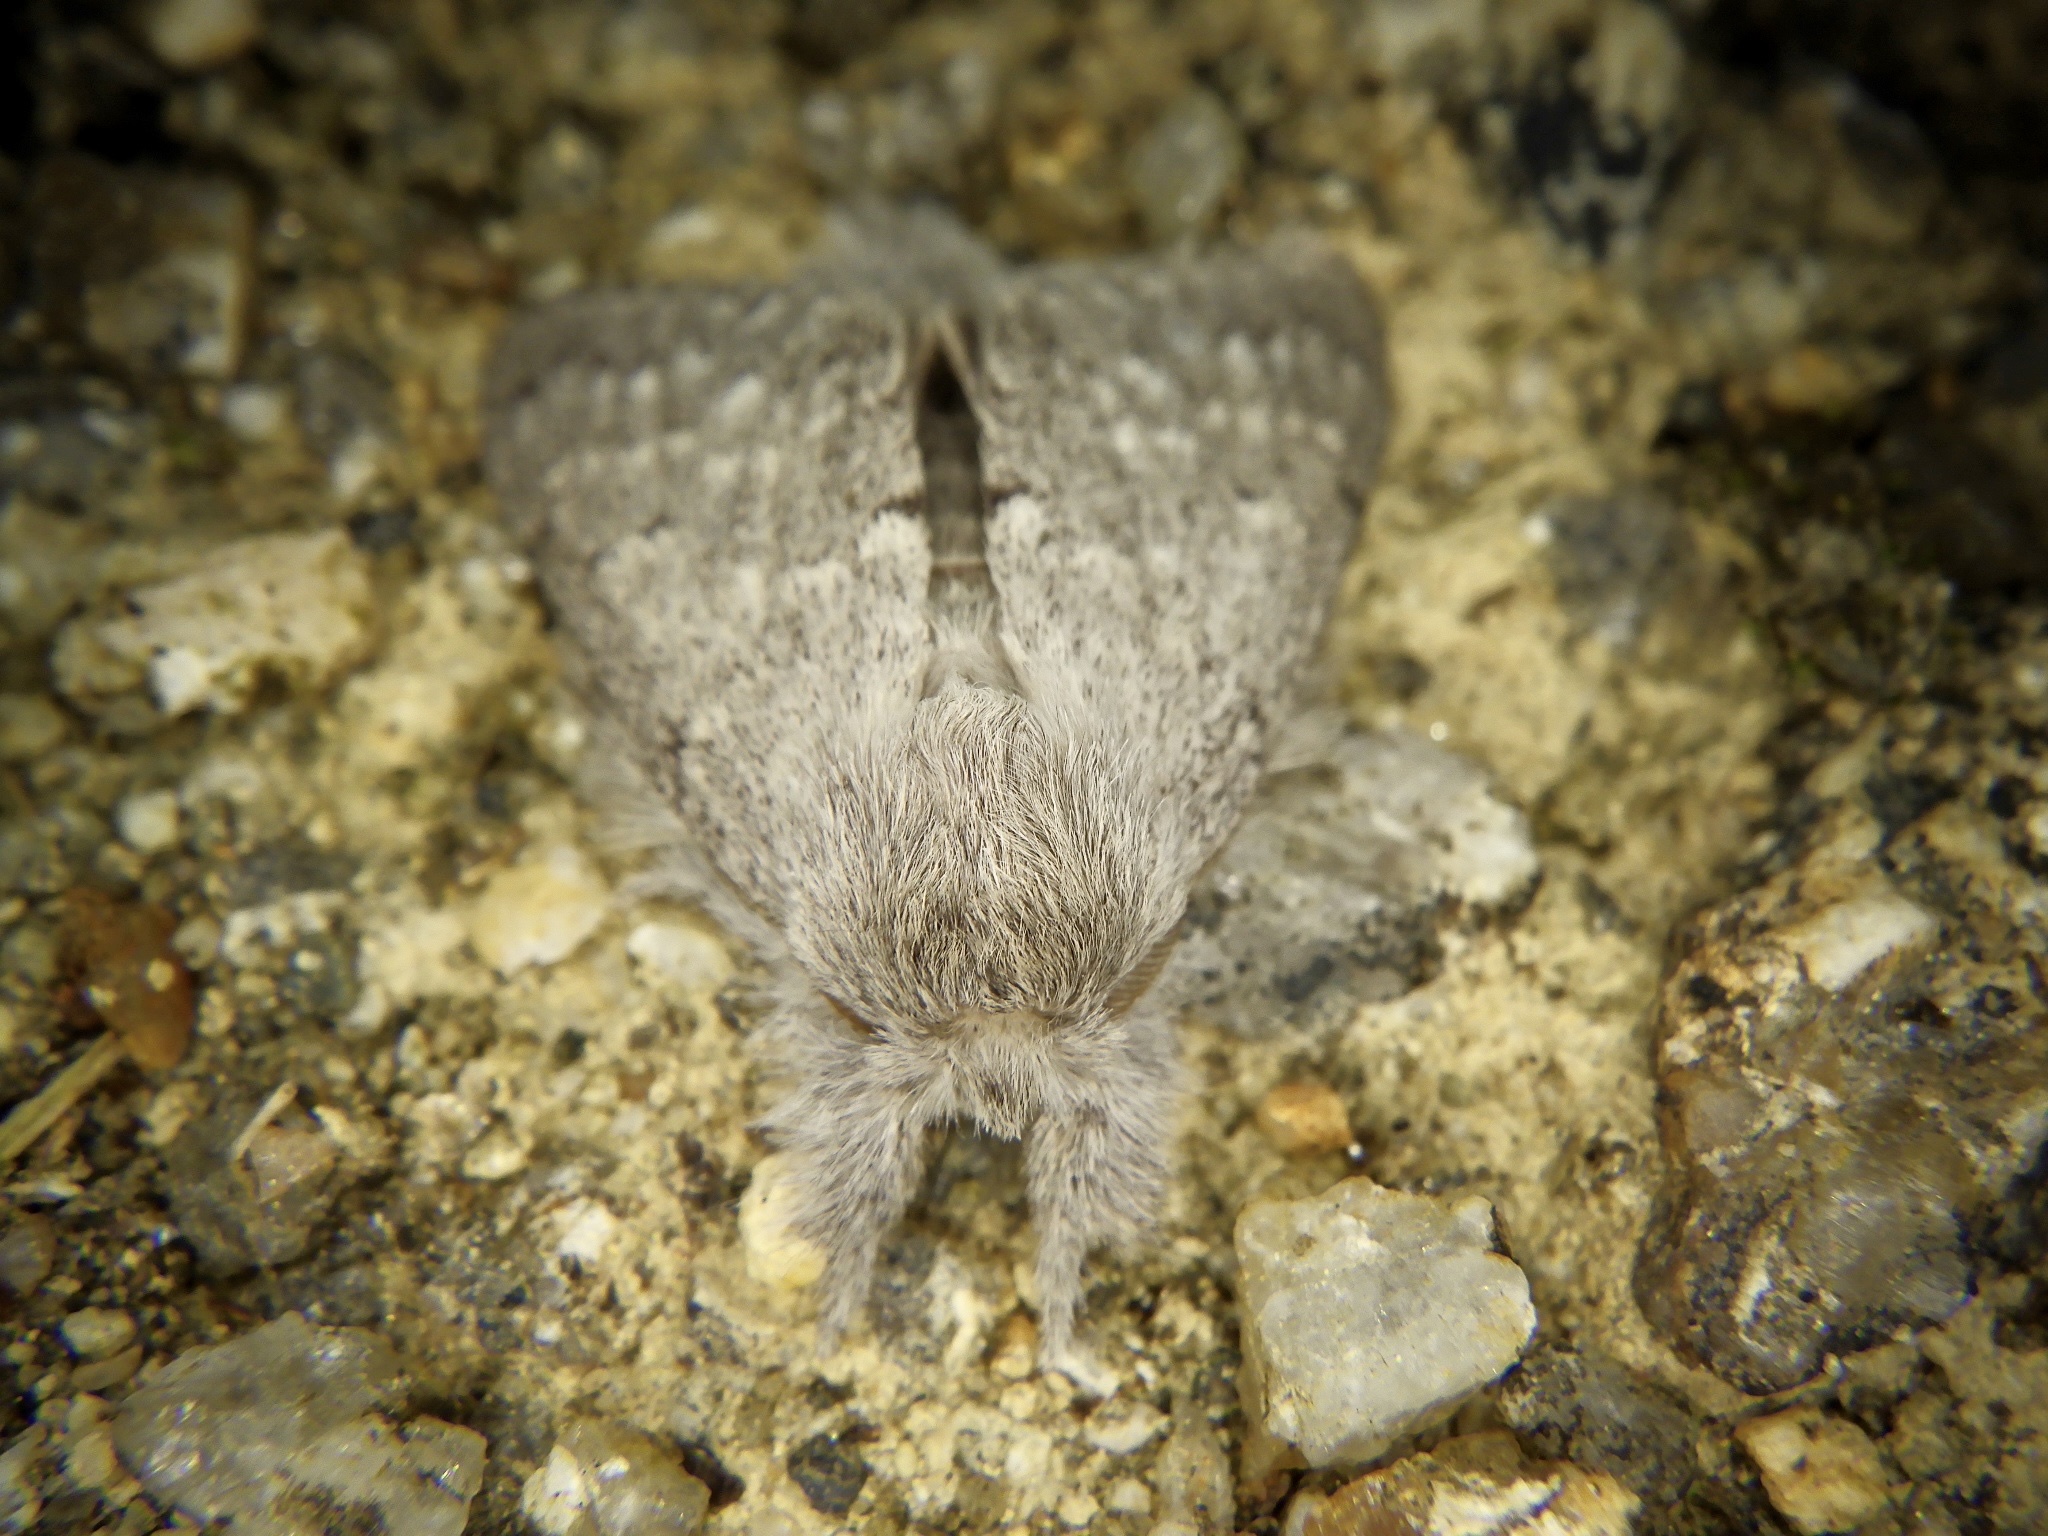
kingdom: Animalia
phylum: Arthropoda
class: Insecta
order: Lepidoptera
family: Notodontidae
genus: Cnethodonta
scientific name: Cnethodonta grisescens
